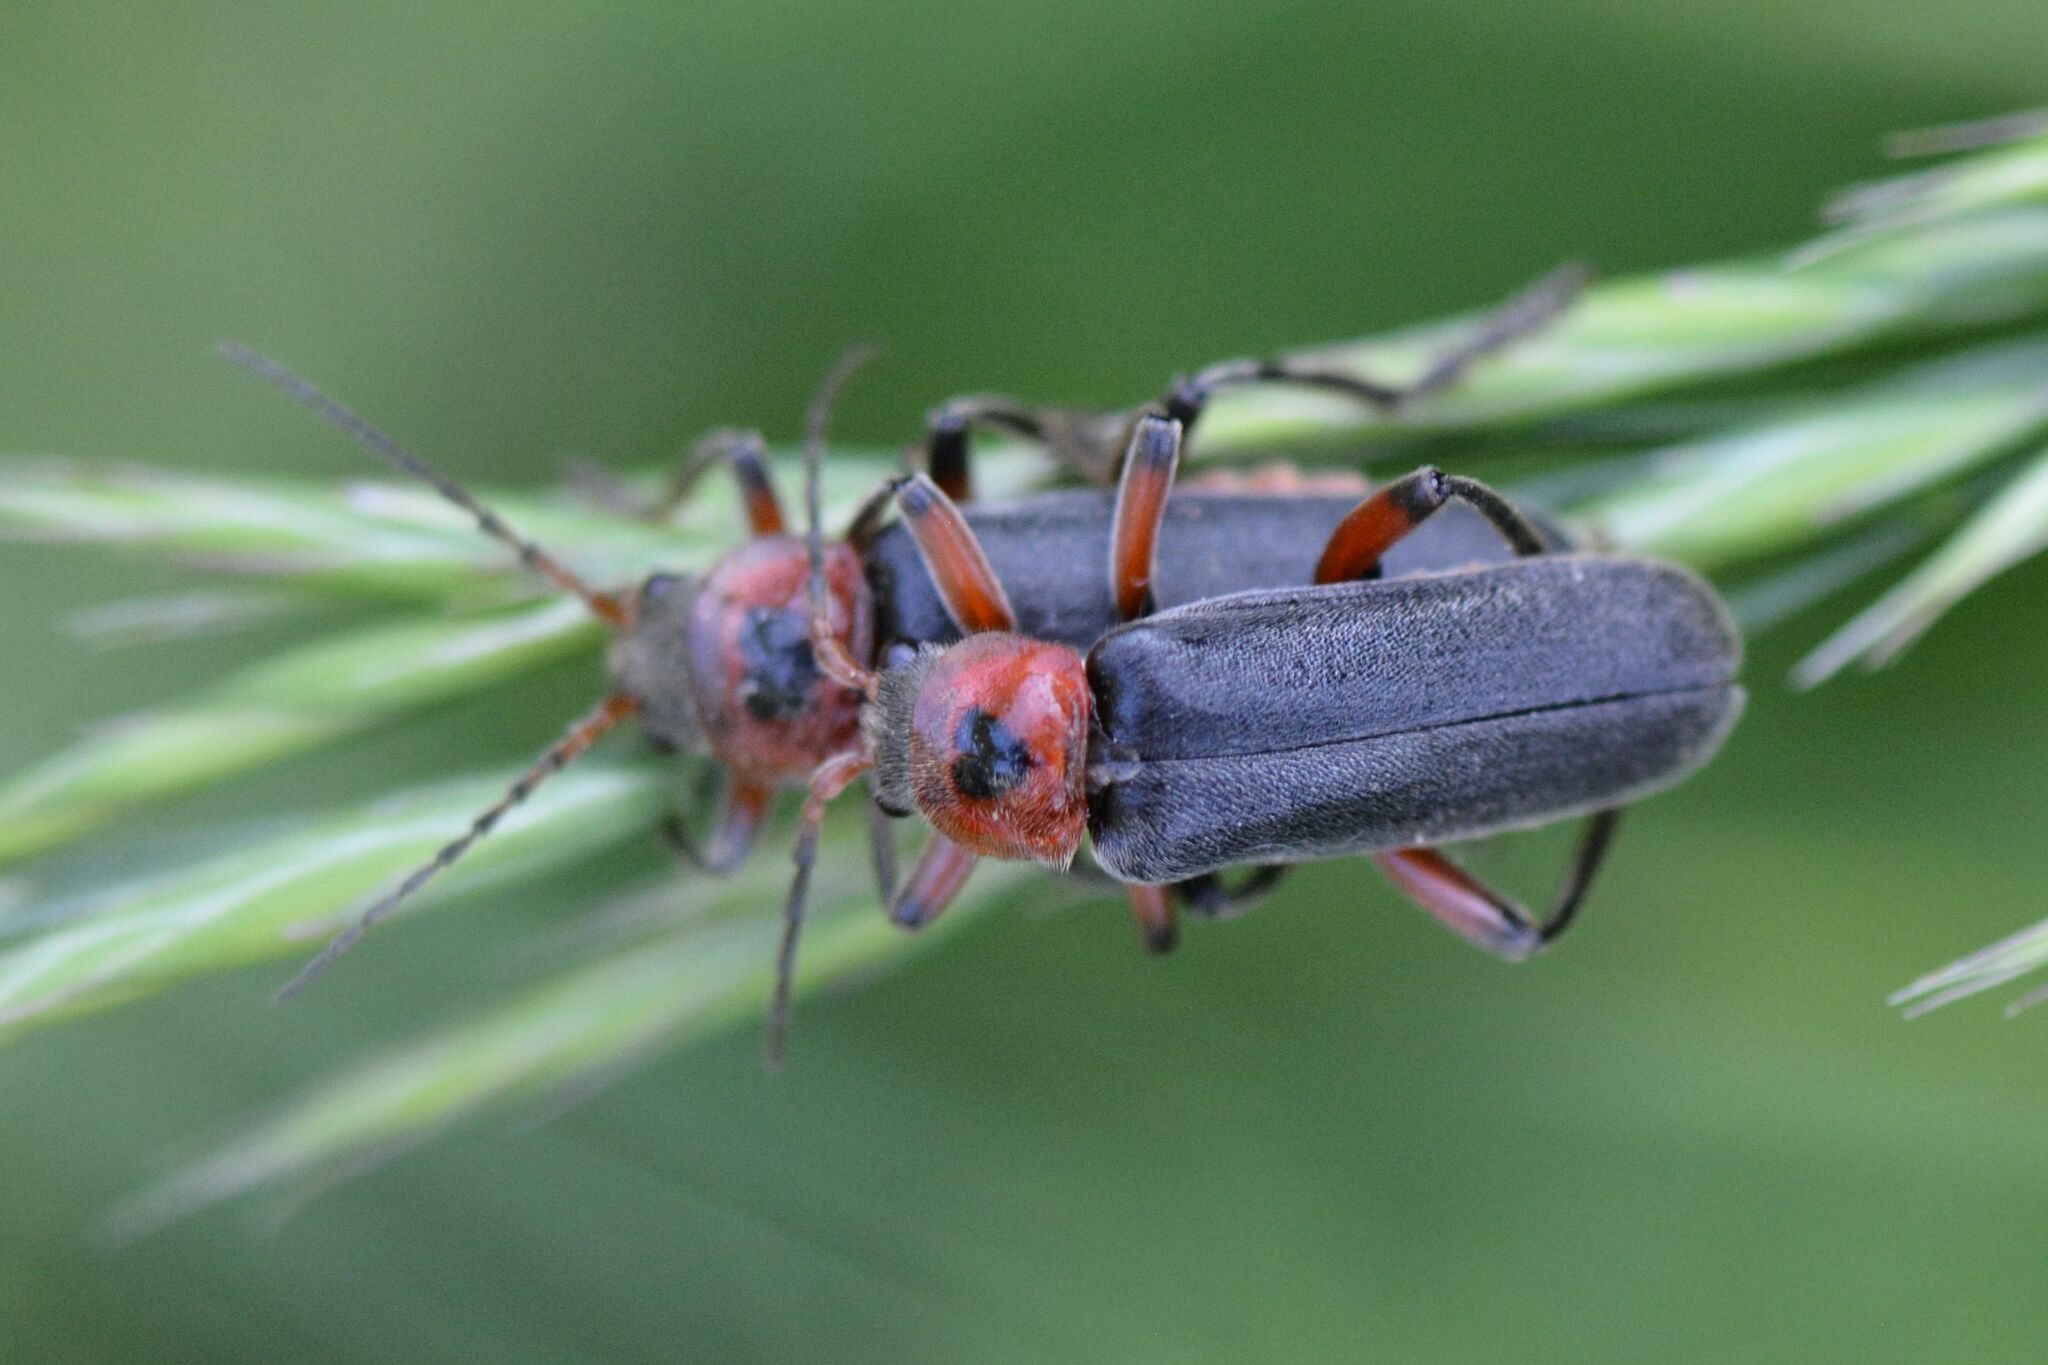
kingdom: Animalia
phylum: Arthropoda
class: Insecta
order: Coleoptera
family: Cantharidae
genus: Cantharis
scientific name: Cantharis rustica
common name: Soldier beetle
